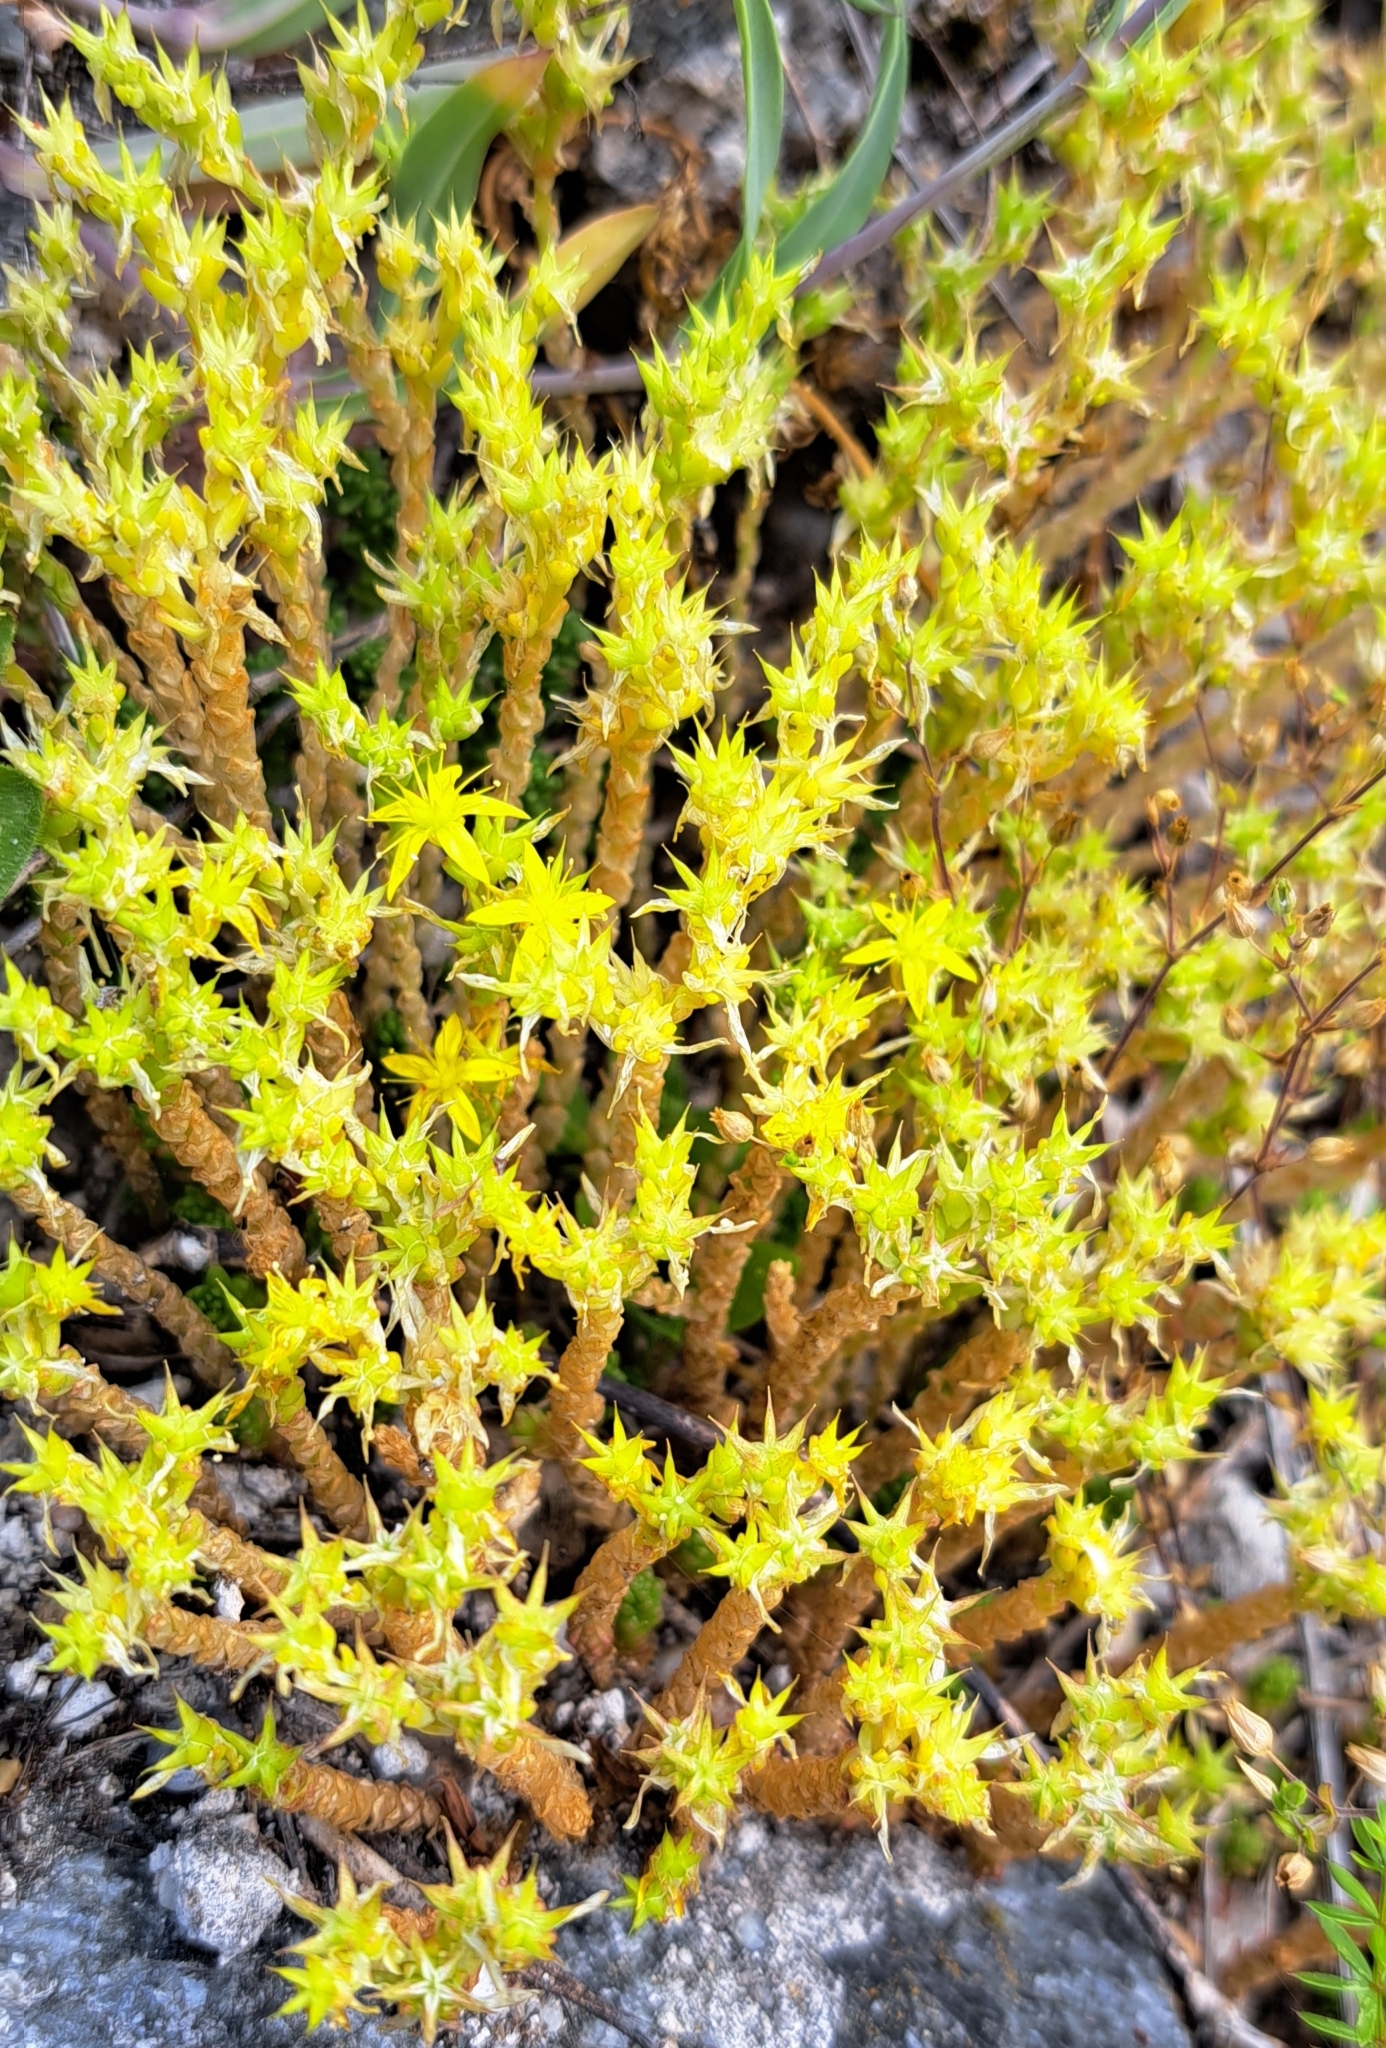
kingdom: Plantae
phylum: Tracheophyta
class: Magnoliopsida
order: Saxifragales
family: Crassulaceae
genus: Sedum
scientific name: Sedum acre
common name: Biting stonecrop
